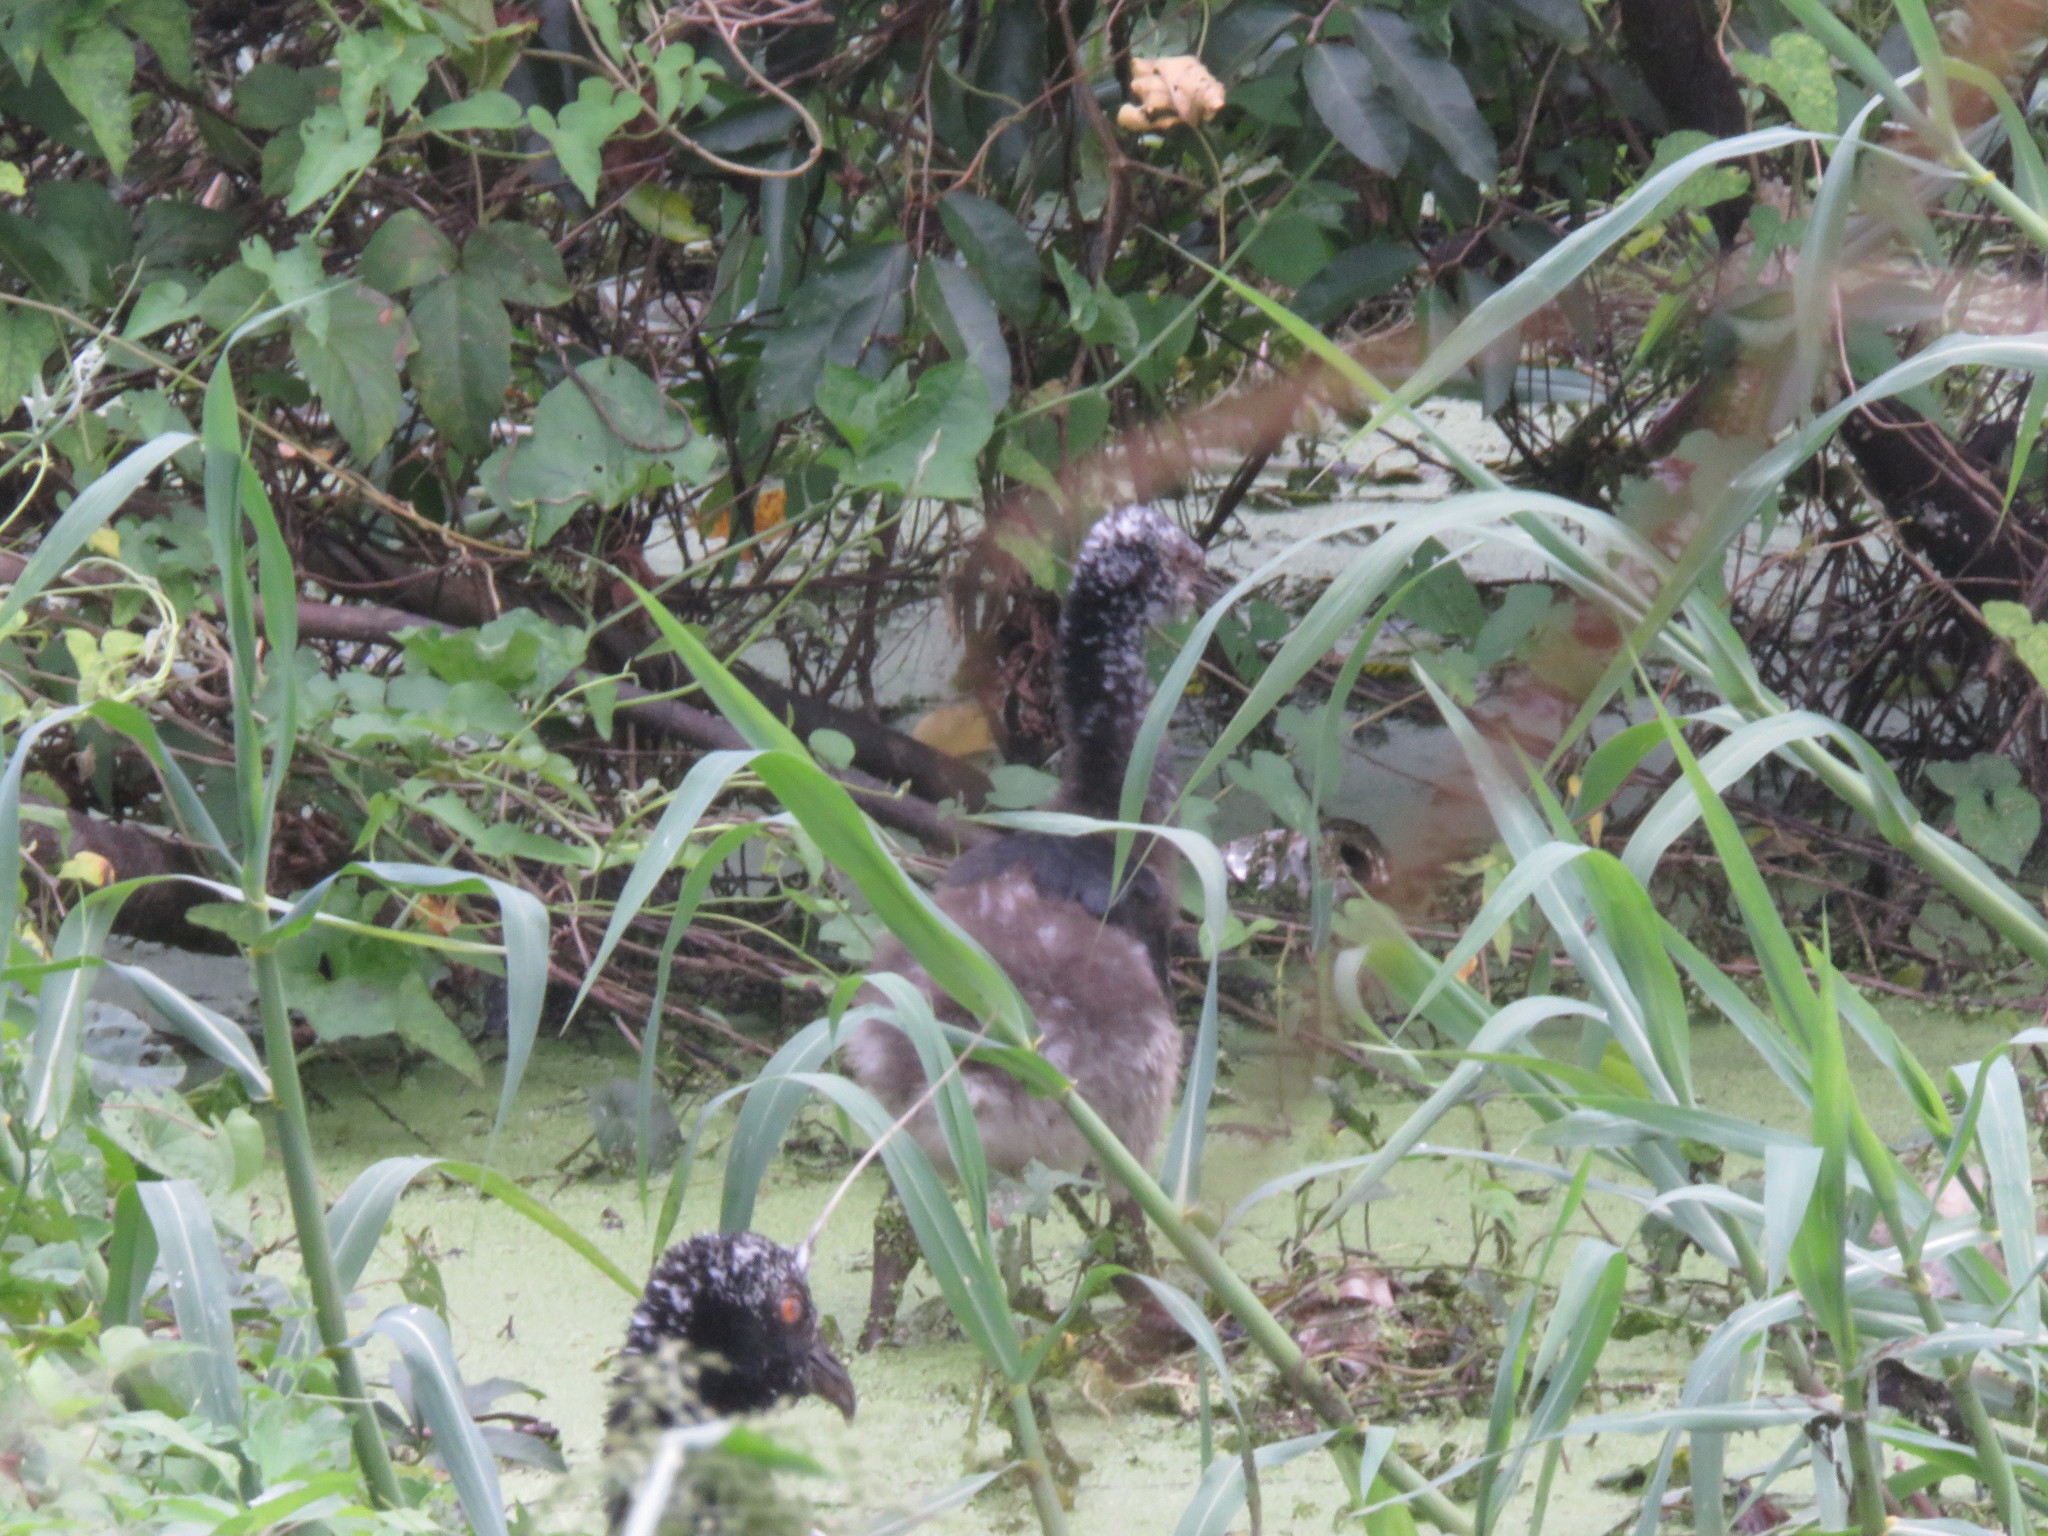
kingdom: Animalia
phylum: Chordata
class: Aves
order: Anseriformes
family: Anhimidae
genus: Anhima
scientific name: Anhima cornuta
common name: Horned screamer
